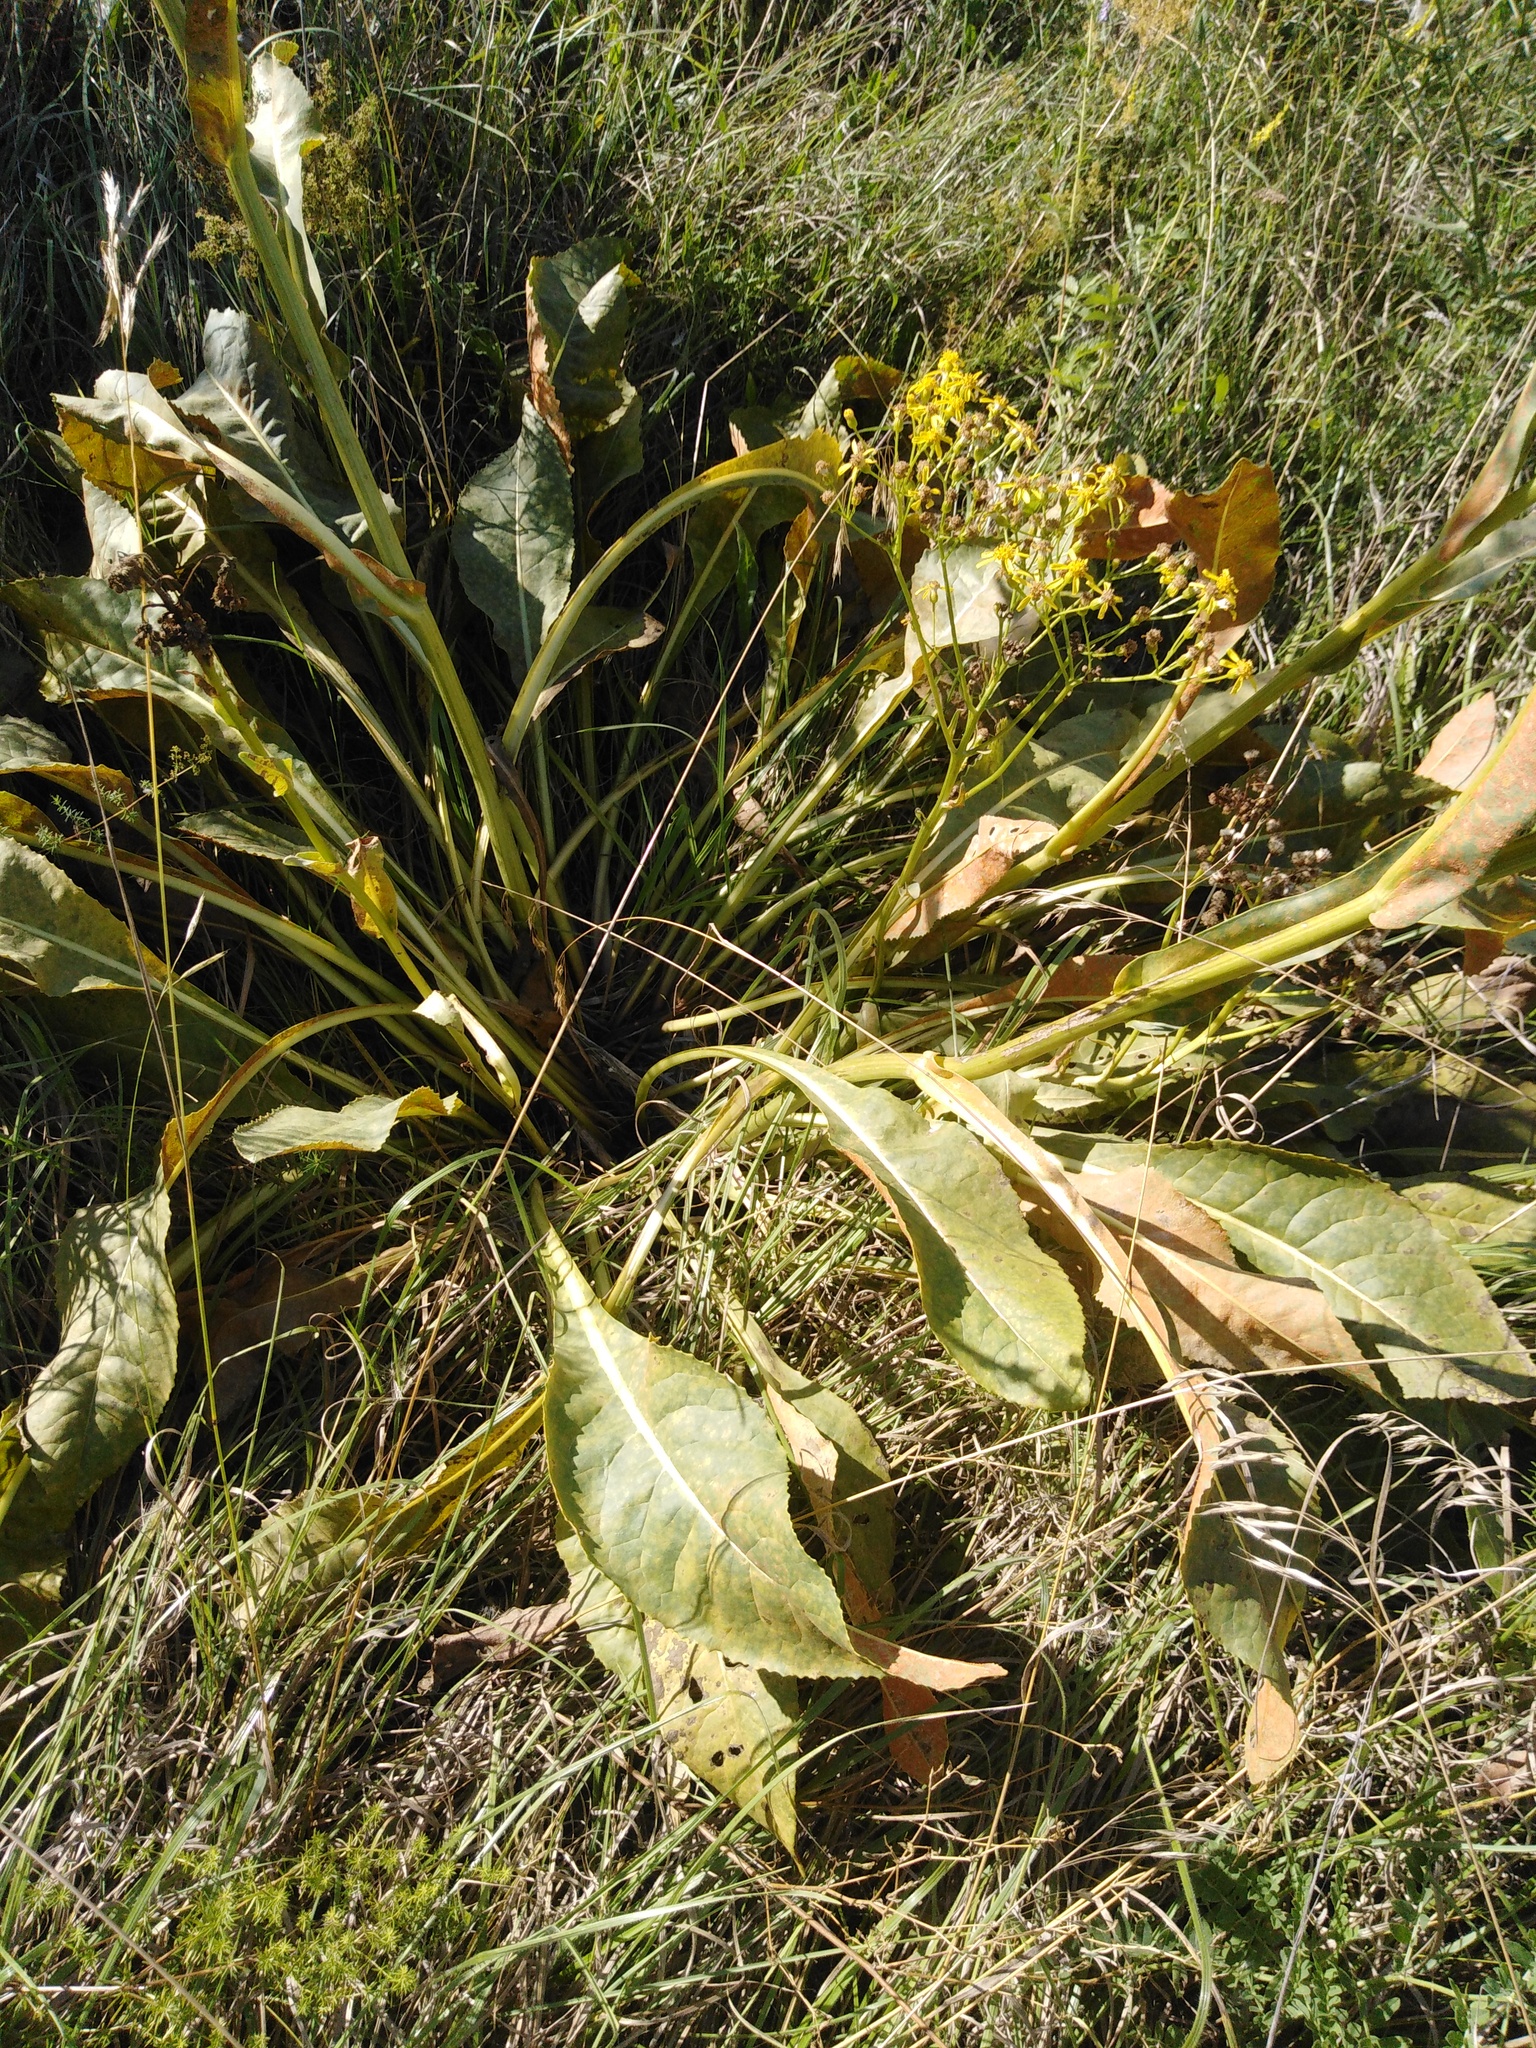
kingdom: Plantae
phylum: Tracheophyta
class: Magnoliopsida
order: Asterales
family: Asteraceae
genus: Senecio
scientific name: Senecio doria
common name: Golden ragwort
